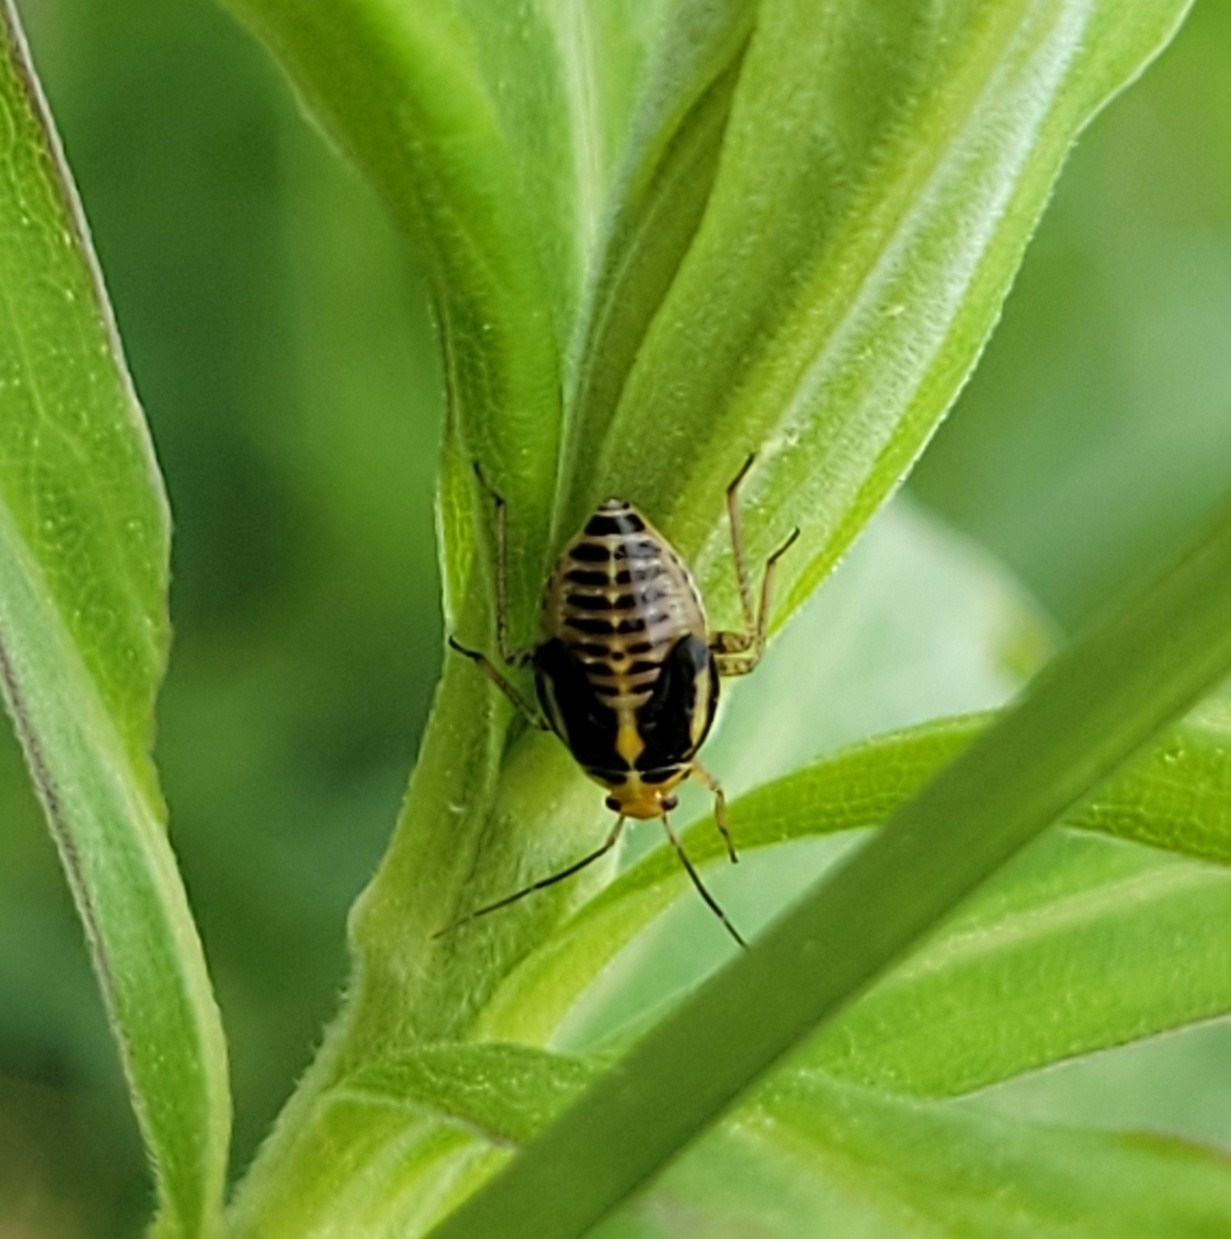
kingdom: Animalia
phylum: Arthropoda
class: Insecta
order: Hemiptera
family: Miridae
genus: Poecilocapsus
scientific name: Poecilocapsus lineatus
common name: Four-lined plant bug
